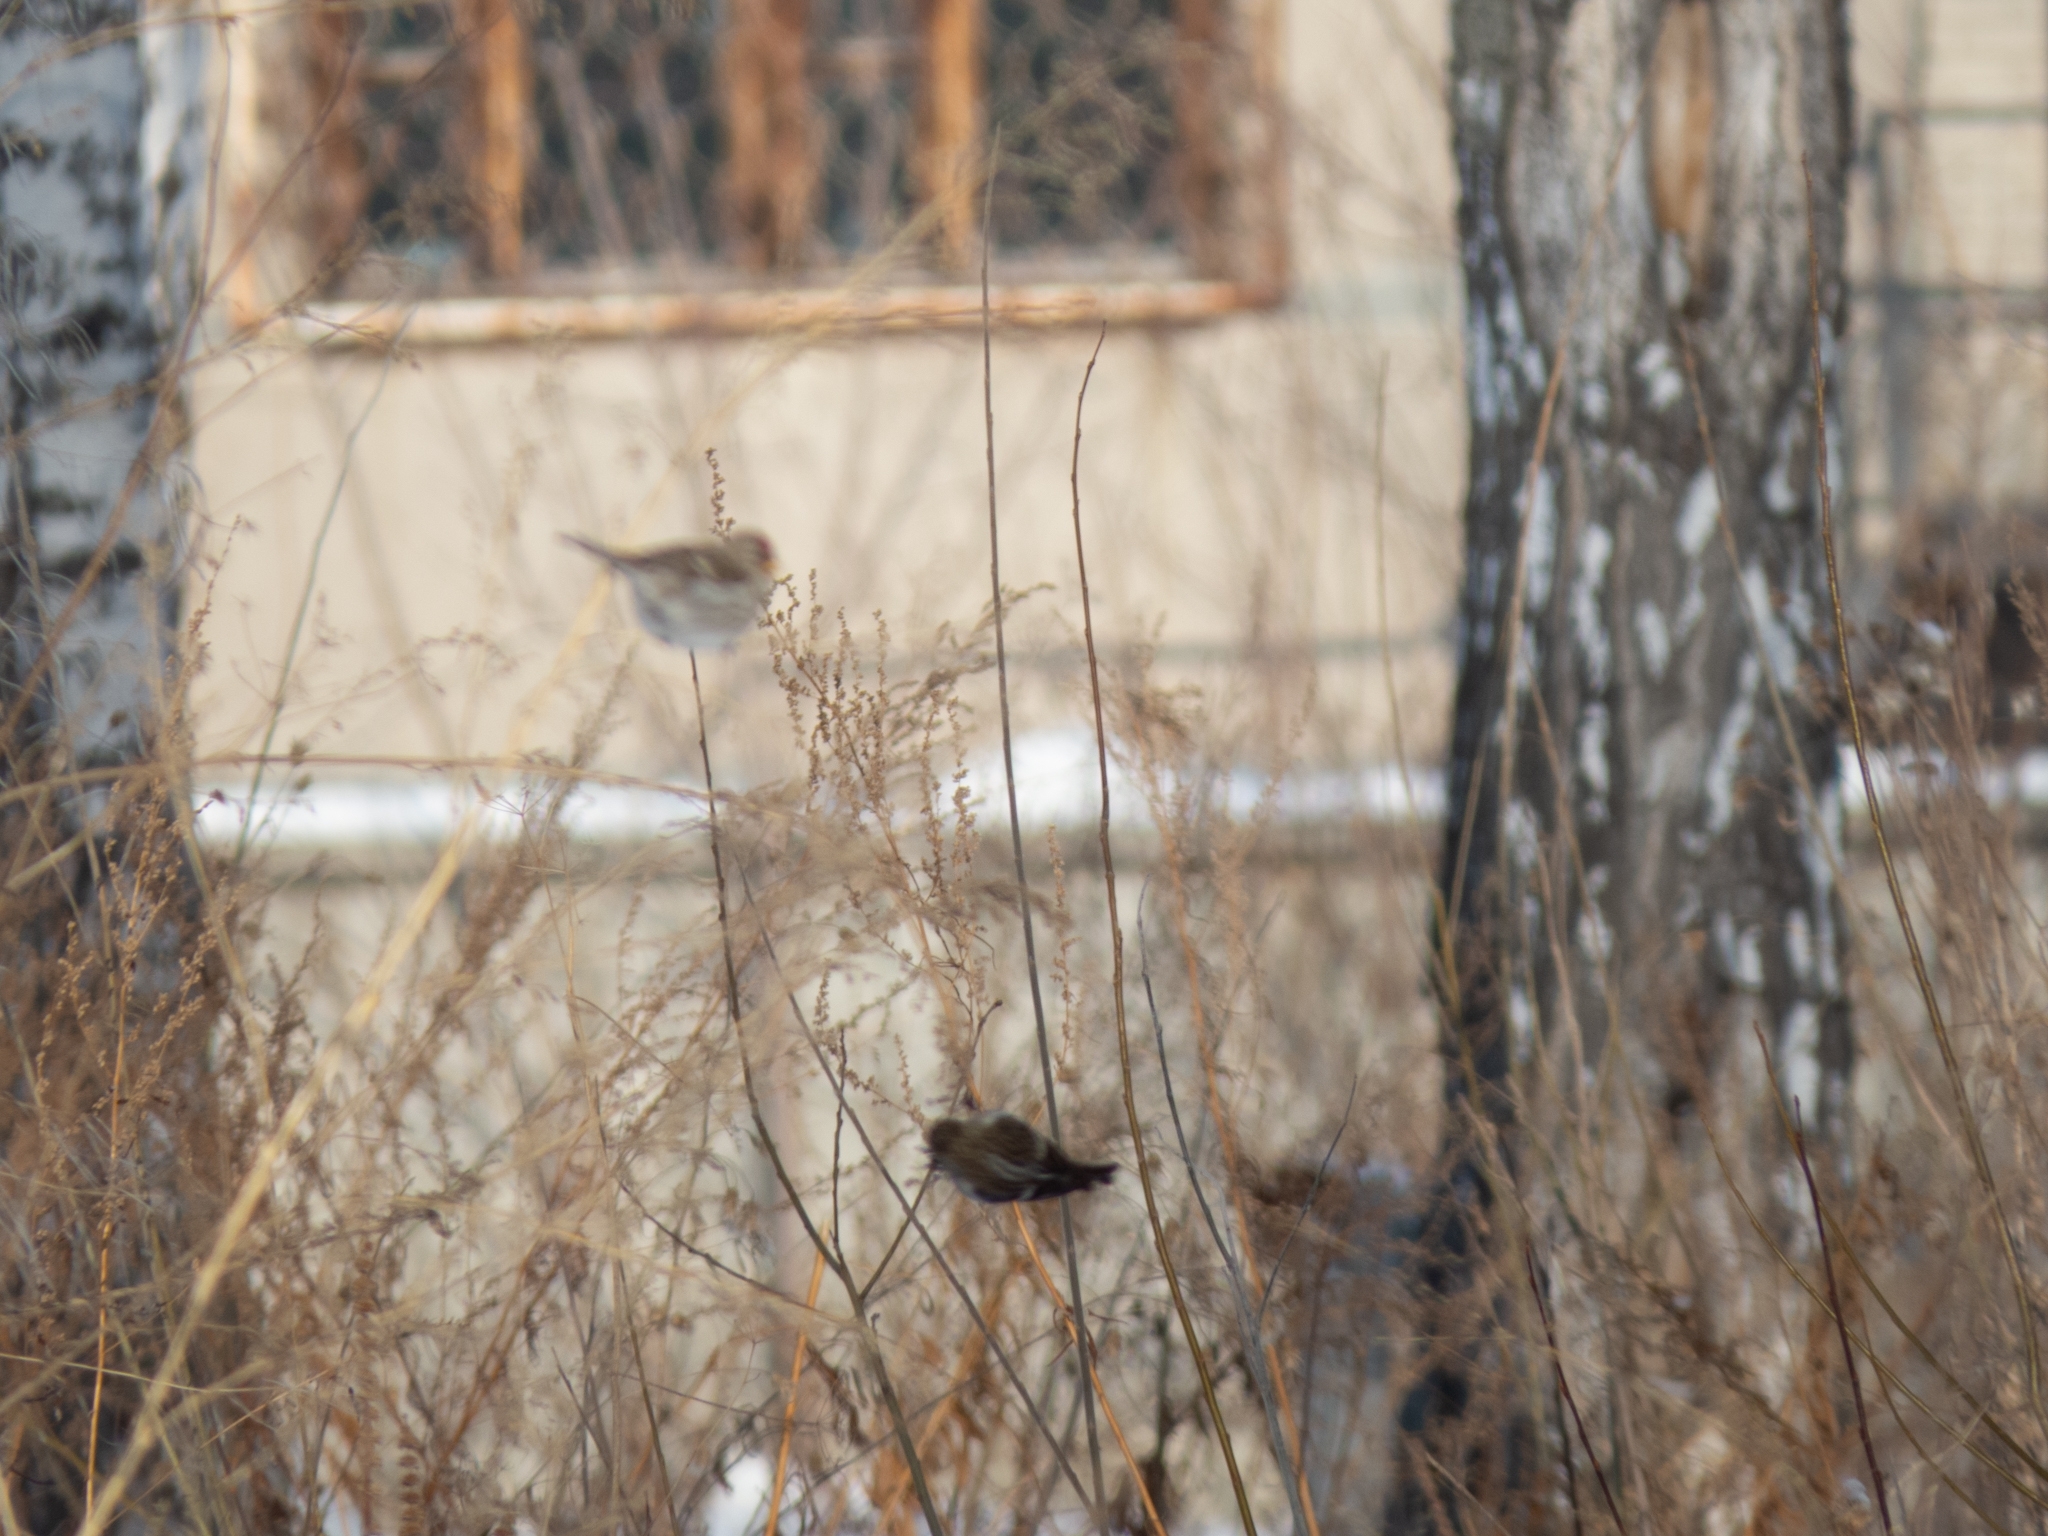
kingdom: Animalia
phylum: Chordata
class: Aves
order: Passeriformes
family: Fringillidae
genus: Acanthis
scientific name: Acanthis flammea
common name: Common redpoll
